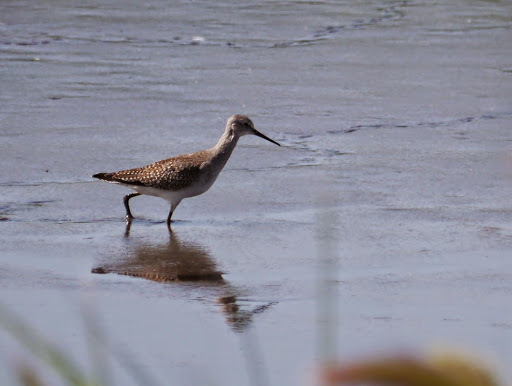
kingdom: Animalia
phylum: Chordata
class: Aves
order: Charadriiformes
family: Scolopacidae
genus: Tringa
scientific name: Tringa melanoleuca
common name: Greater yellowlegs
